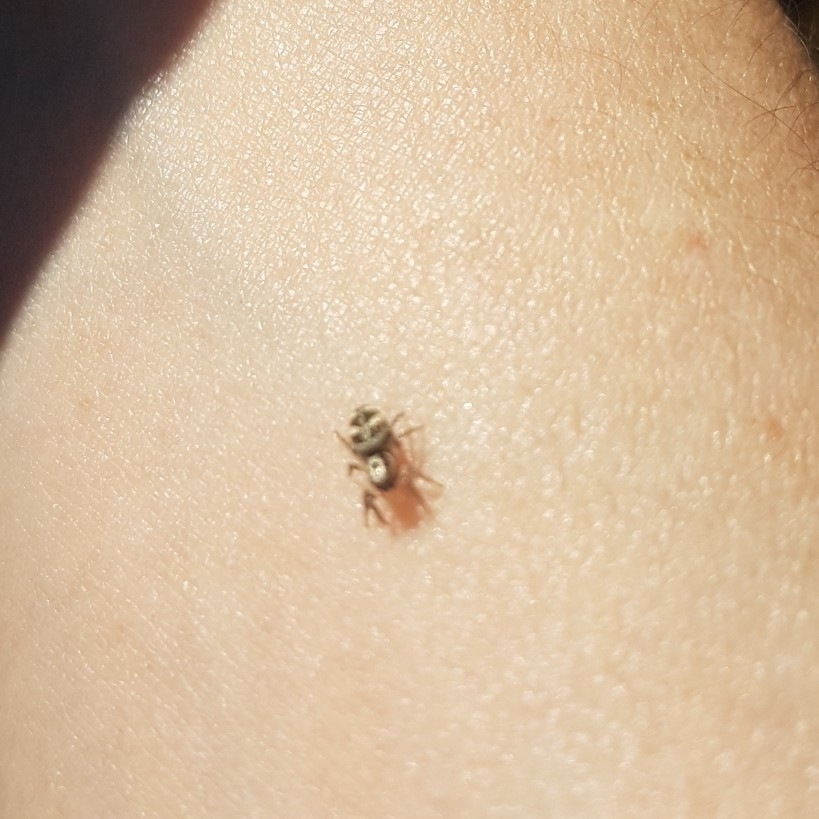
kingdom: Animalia
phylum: Arthropoda
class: Arachnida
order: Araneae
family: Salticidae
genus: Salticus
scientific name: Salticus scenicus
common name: Zebra jumper
